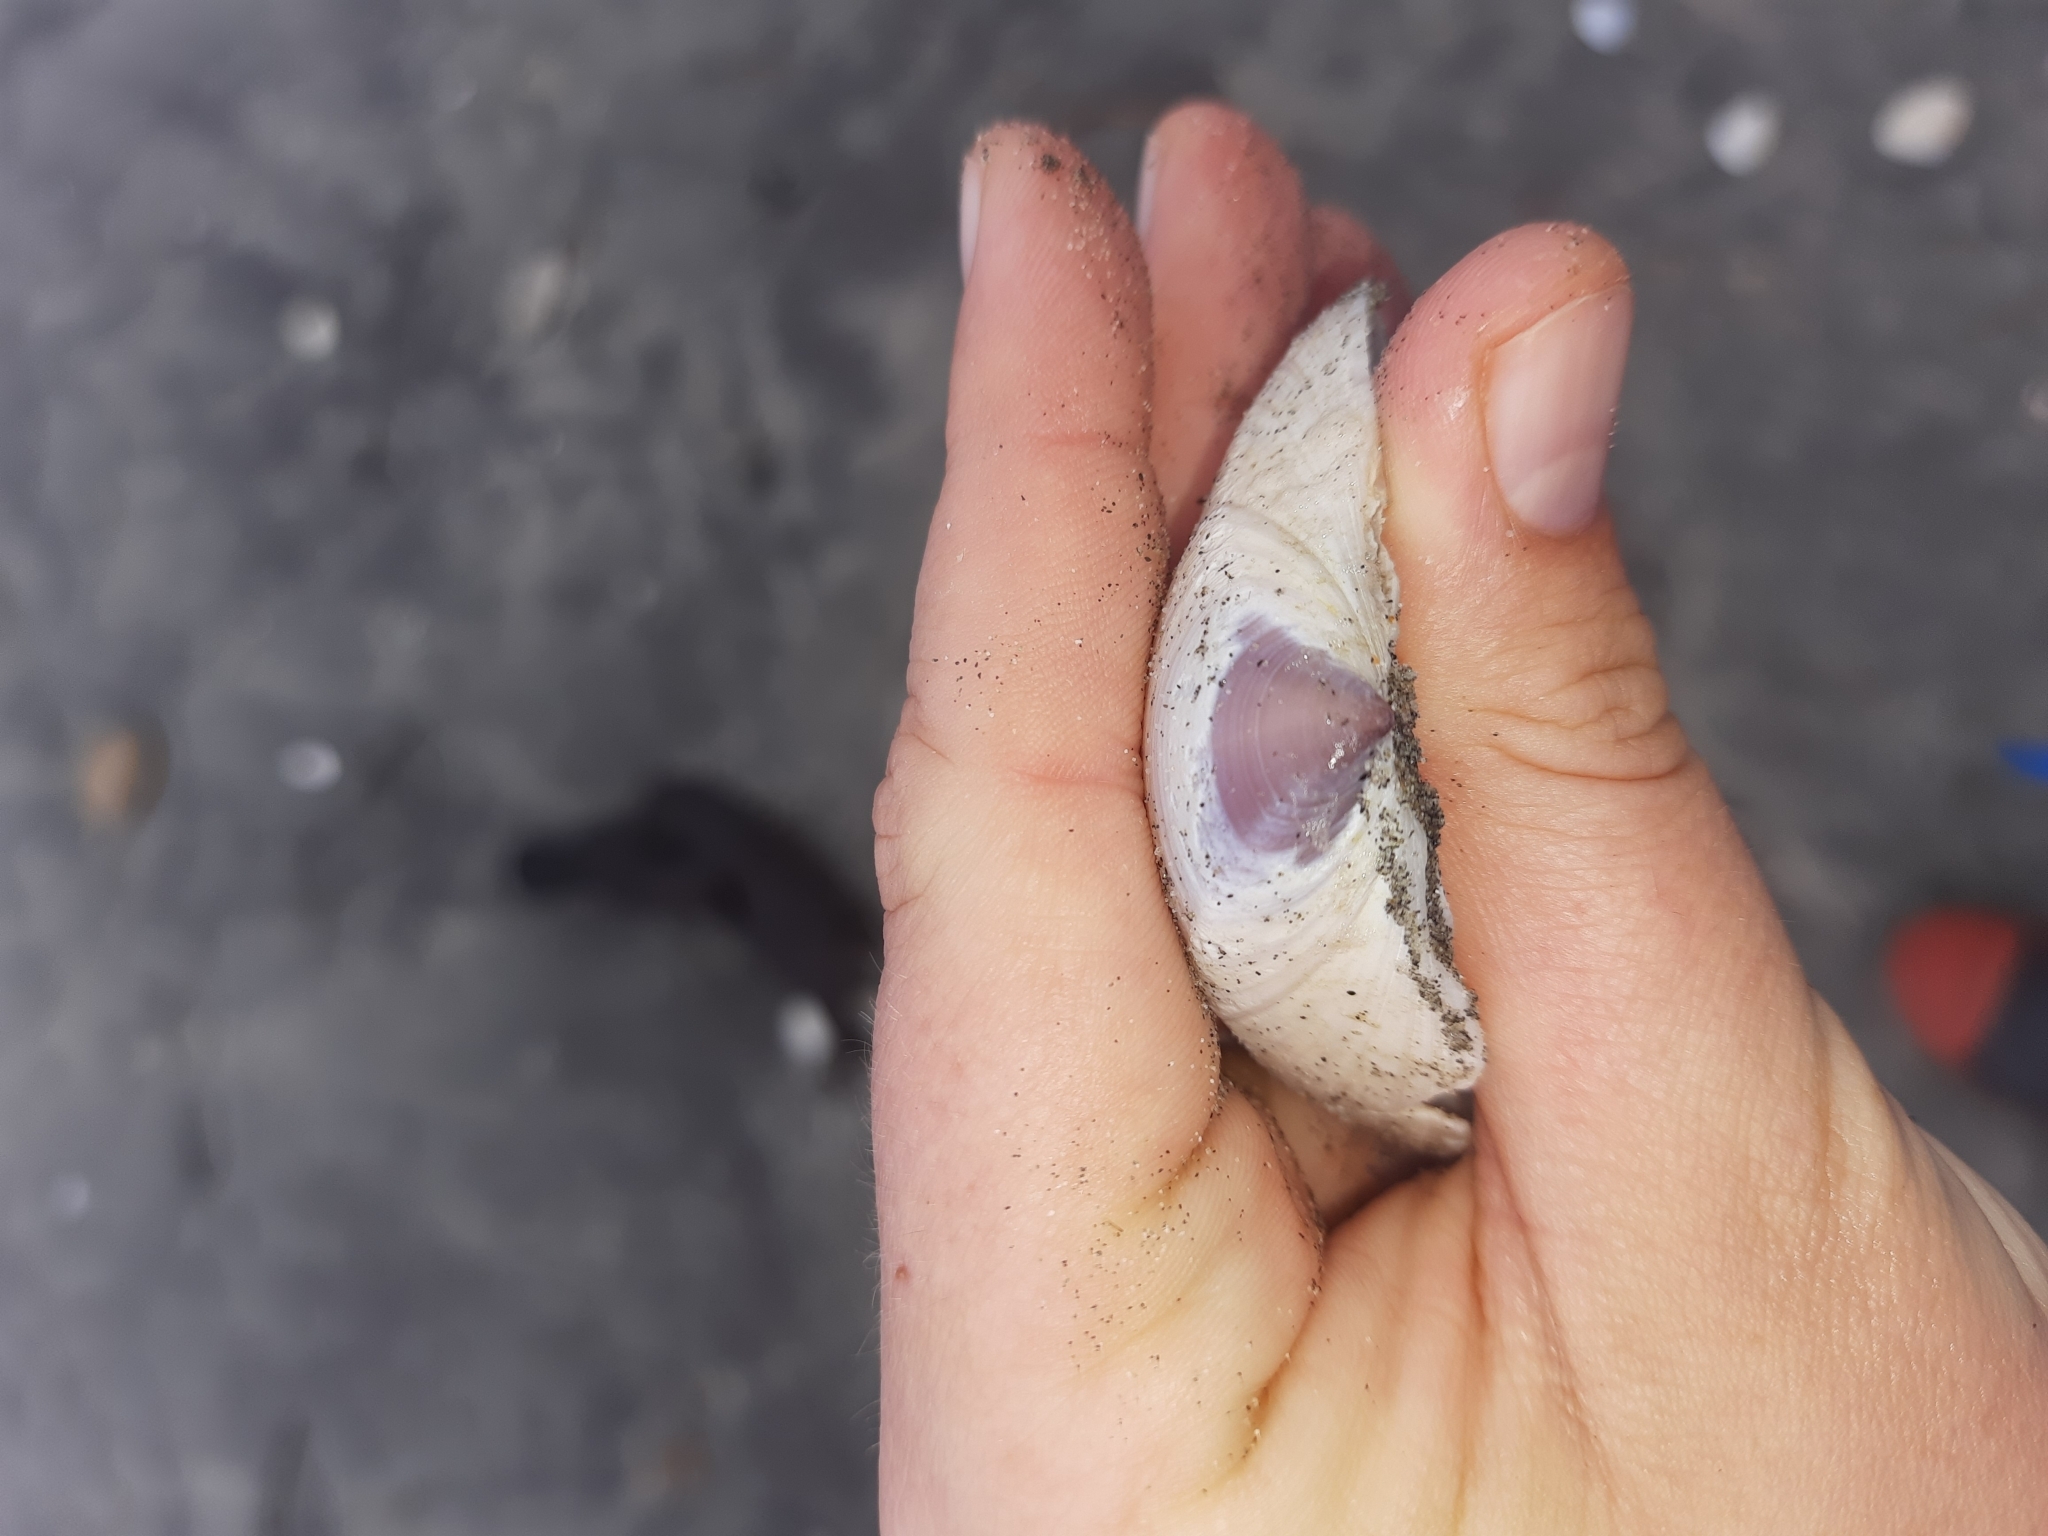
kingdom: Animalia
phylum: Mollusca
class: Bivalvia
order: Venerida
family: Mactridae
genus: Crassula
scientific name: Crassula aequilatera
